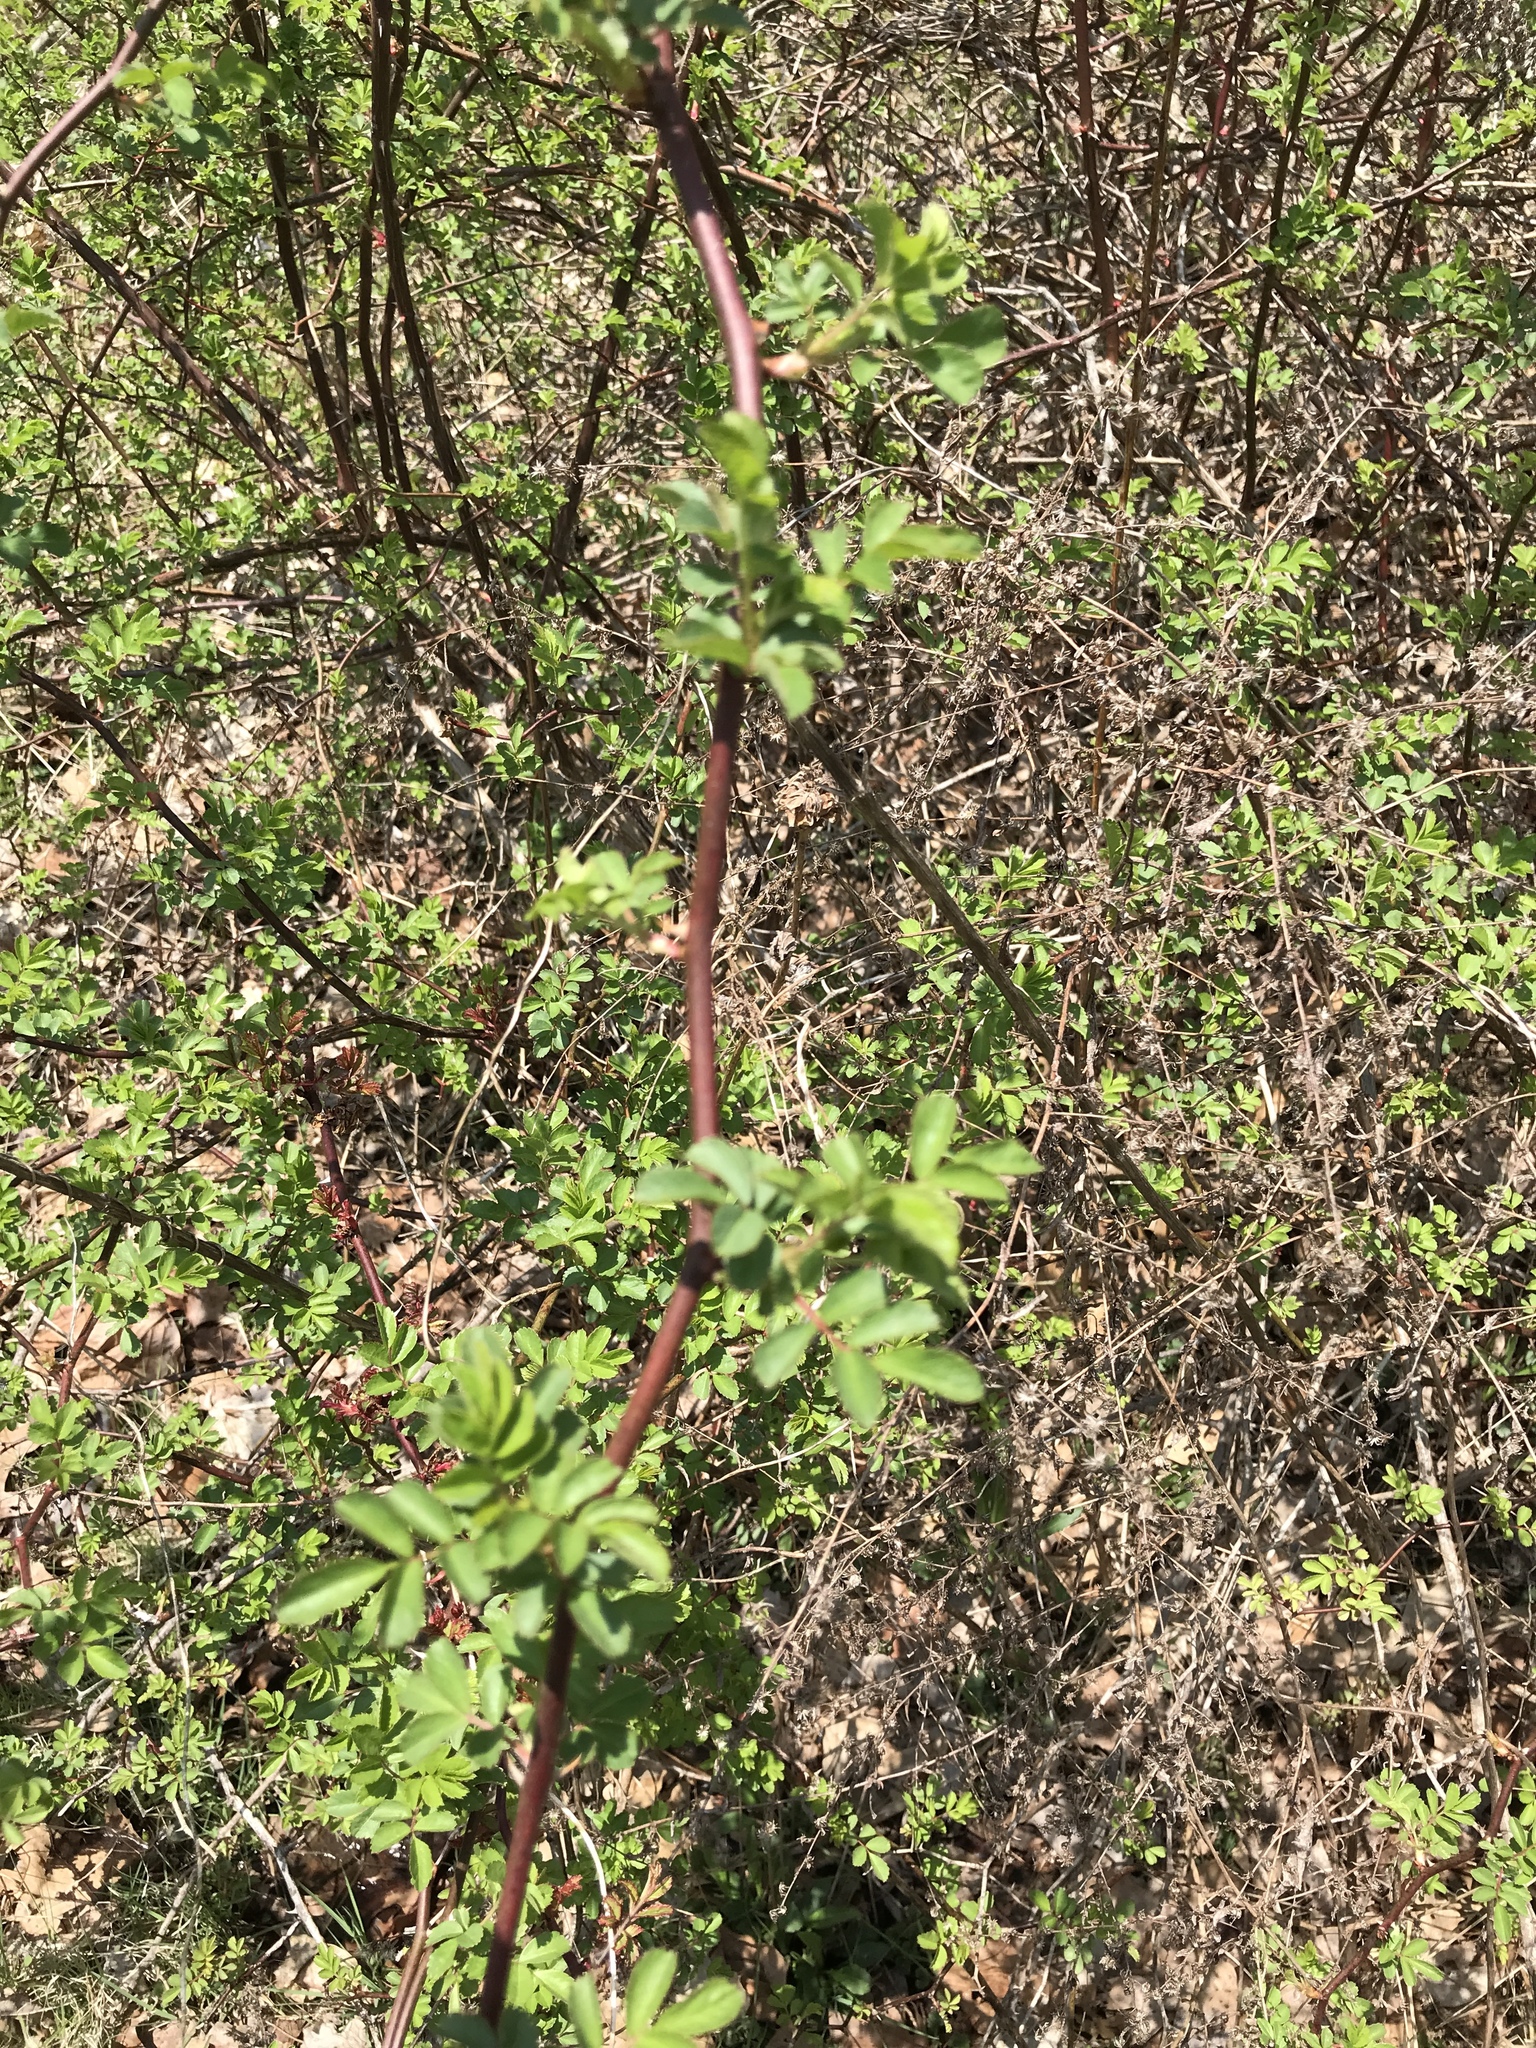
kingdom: Plantae
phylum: Tracheophyta
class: Magnoliopsida
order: Rosales
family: Rosaceae
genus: Rosa
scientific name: Rosa multiflora
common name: Multiflora rose
